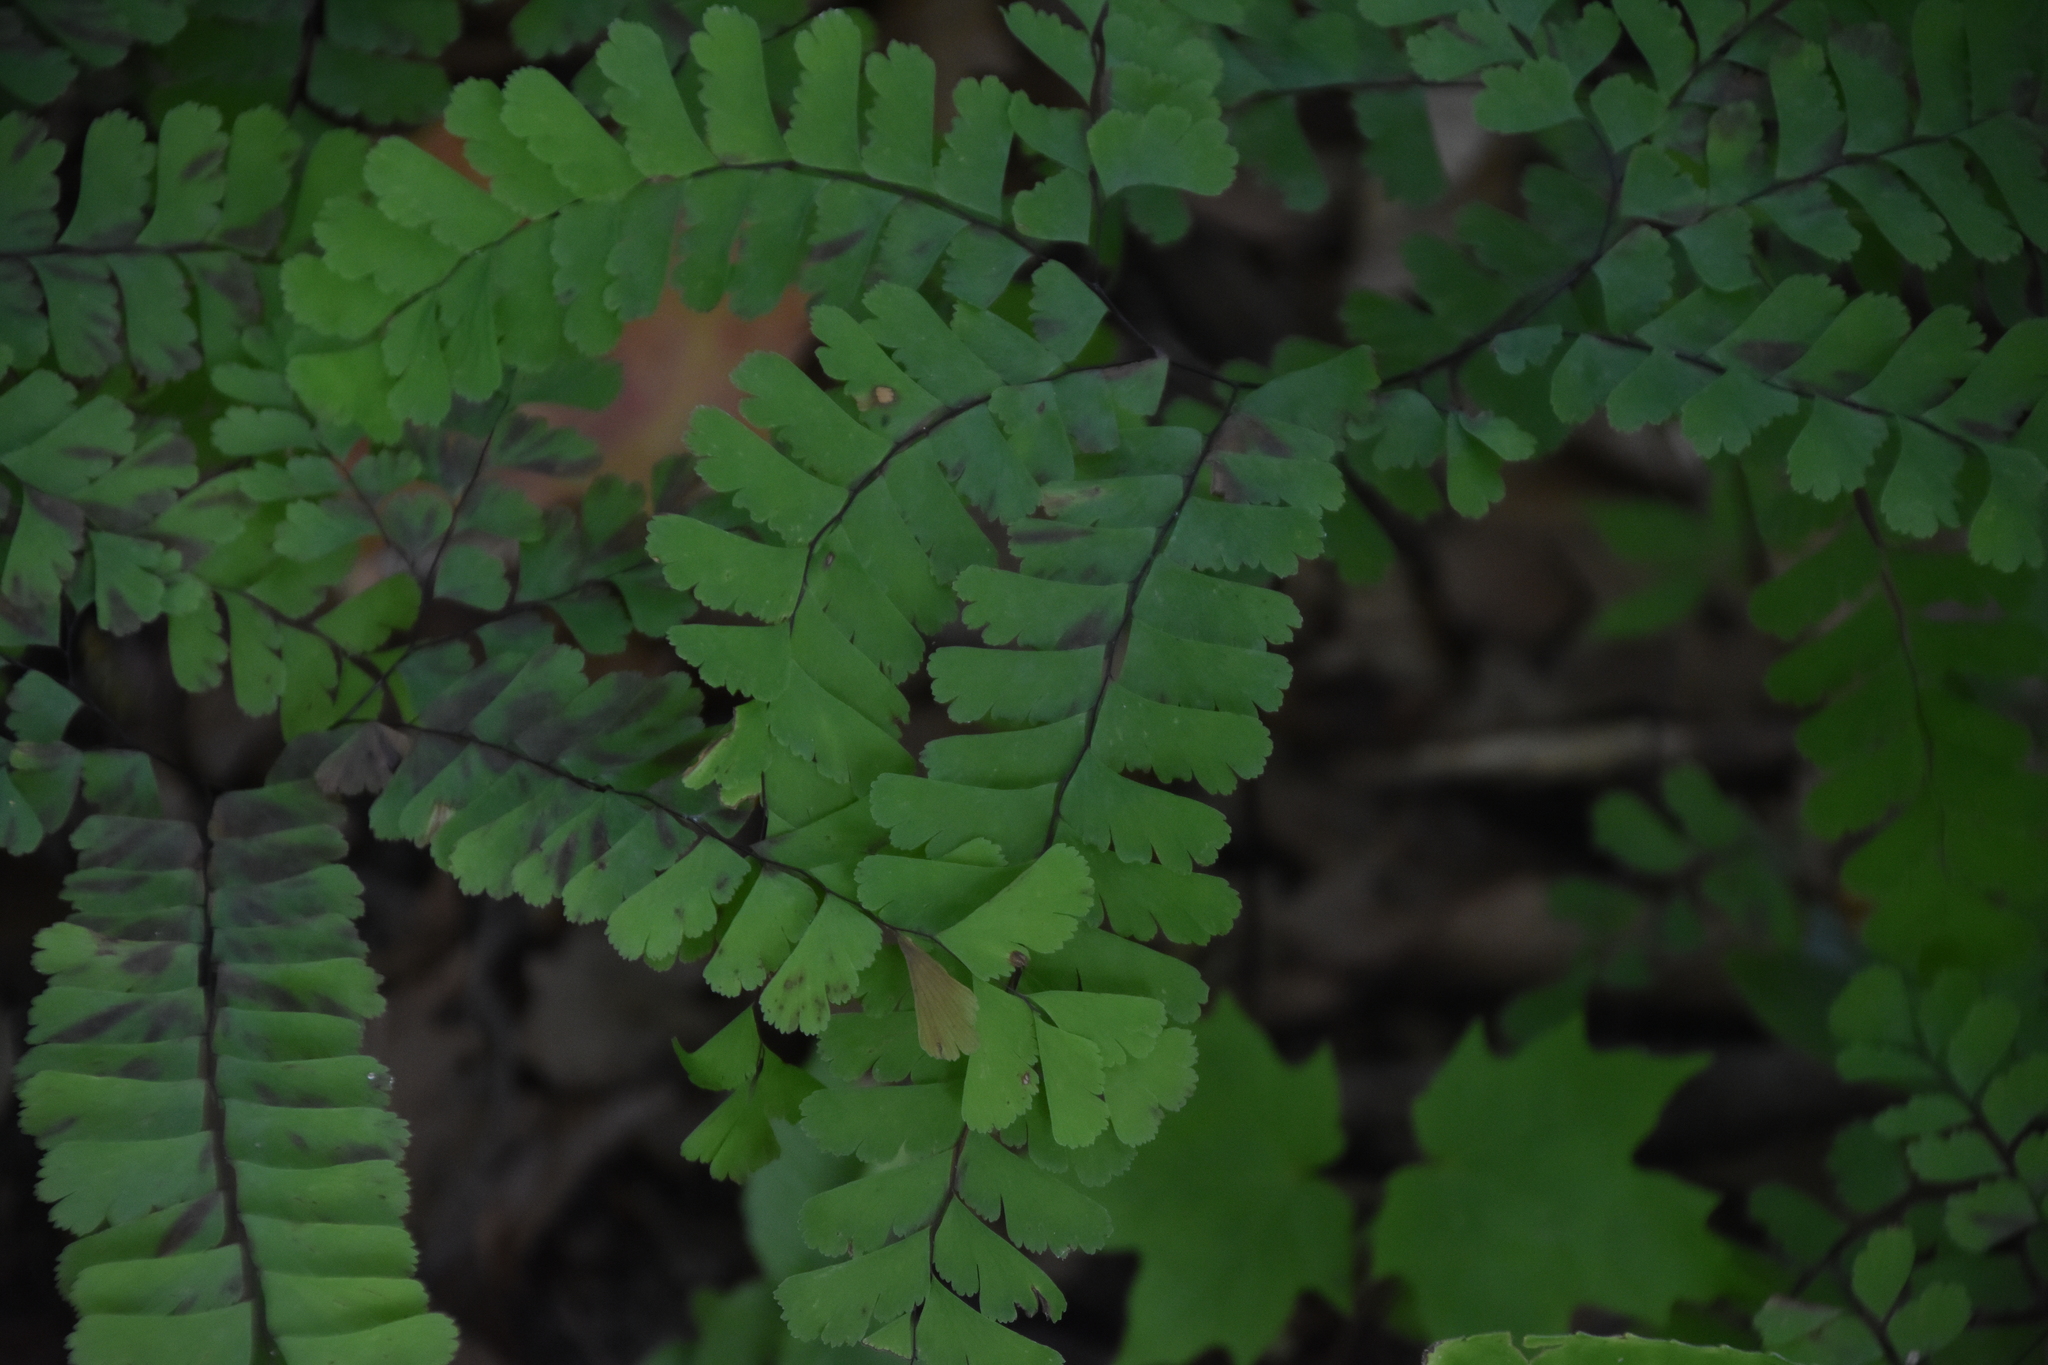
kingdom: Plantae
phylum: Tracheophyta
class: Polypodiopsida
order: Polypodiales
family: Pteridaceae
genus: Adiantum
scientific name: Adiantum pedatum
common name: Five-finger fern
